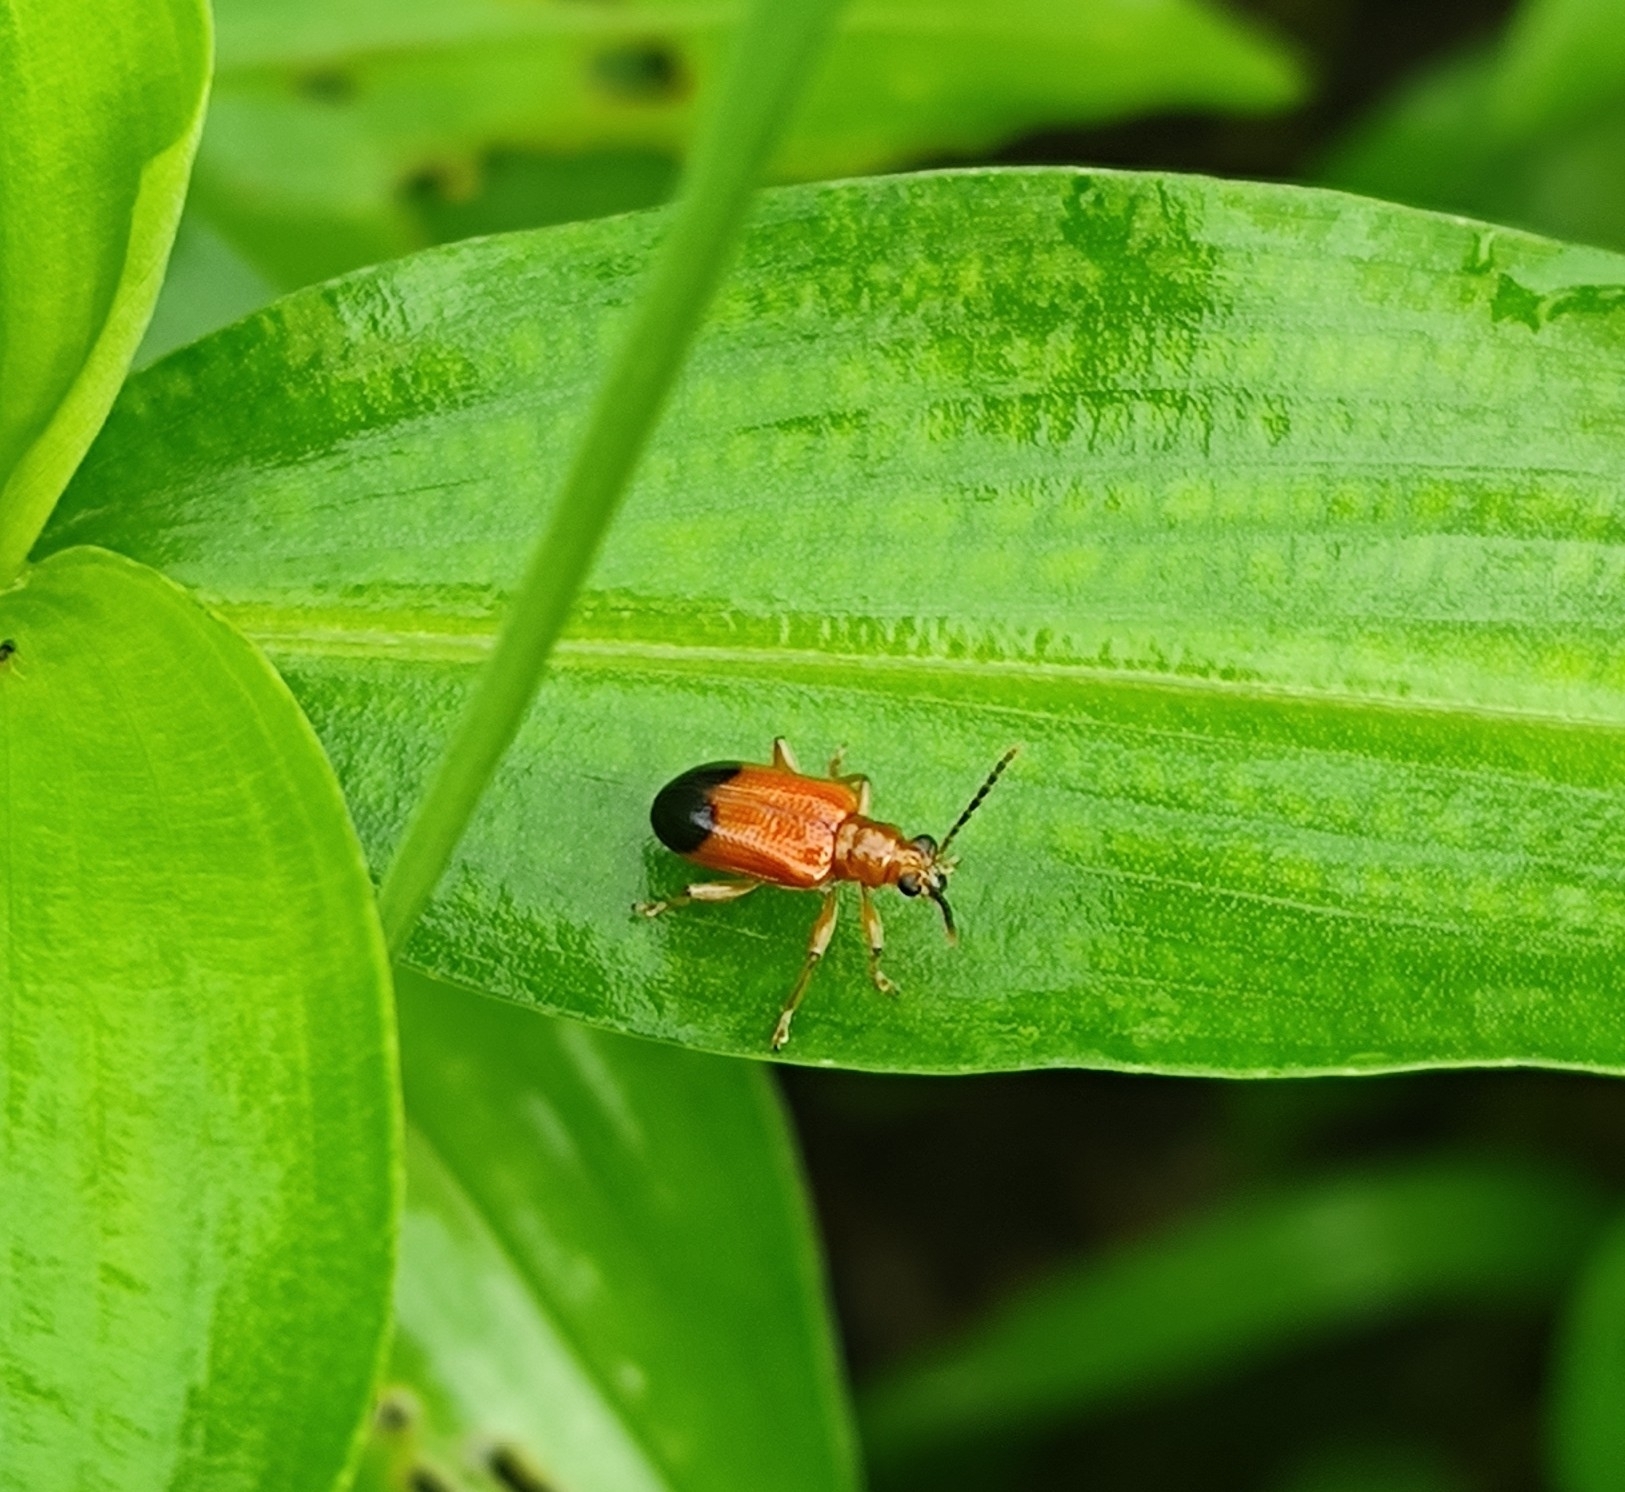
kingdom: Animalia
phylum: Arthropoda
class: Insecta
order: Coleoptera
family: Chrysomelidae
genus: Lema
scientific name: Lema praeusta
